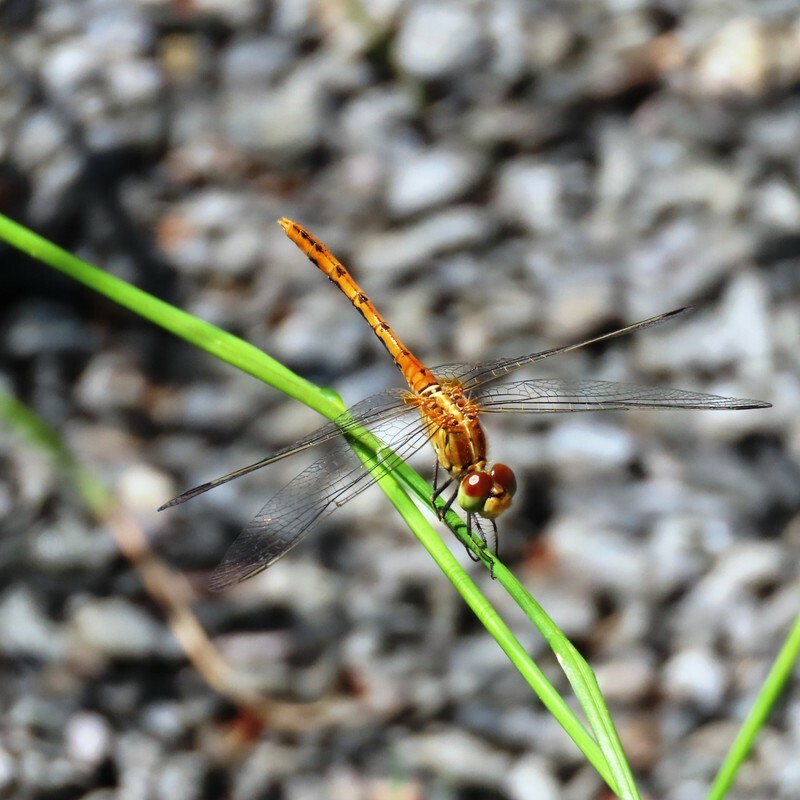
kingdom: Animalia
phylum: Arthropoda
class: Insecta
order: Odonata
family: Libellulidae
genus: Diplacodes
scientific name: Diplacodes bipunctata
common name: Red percher dragonfly
